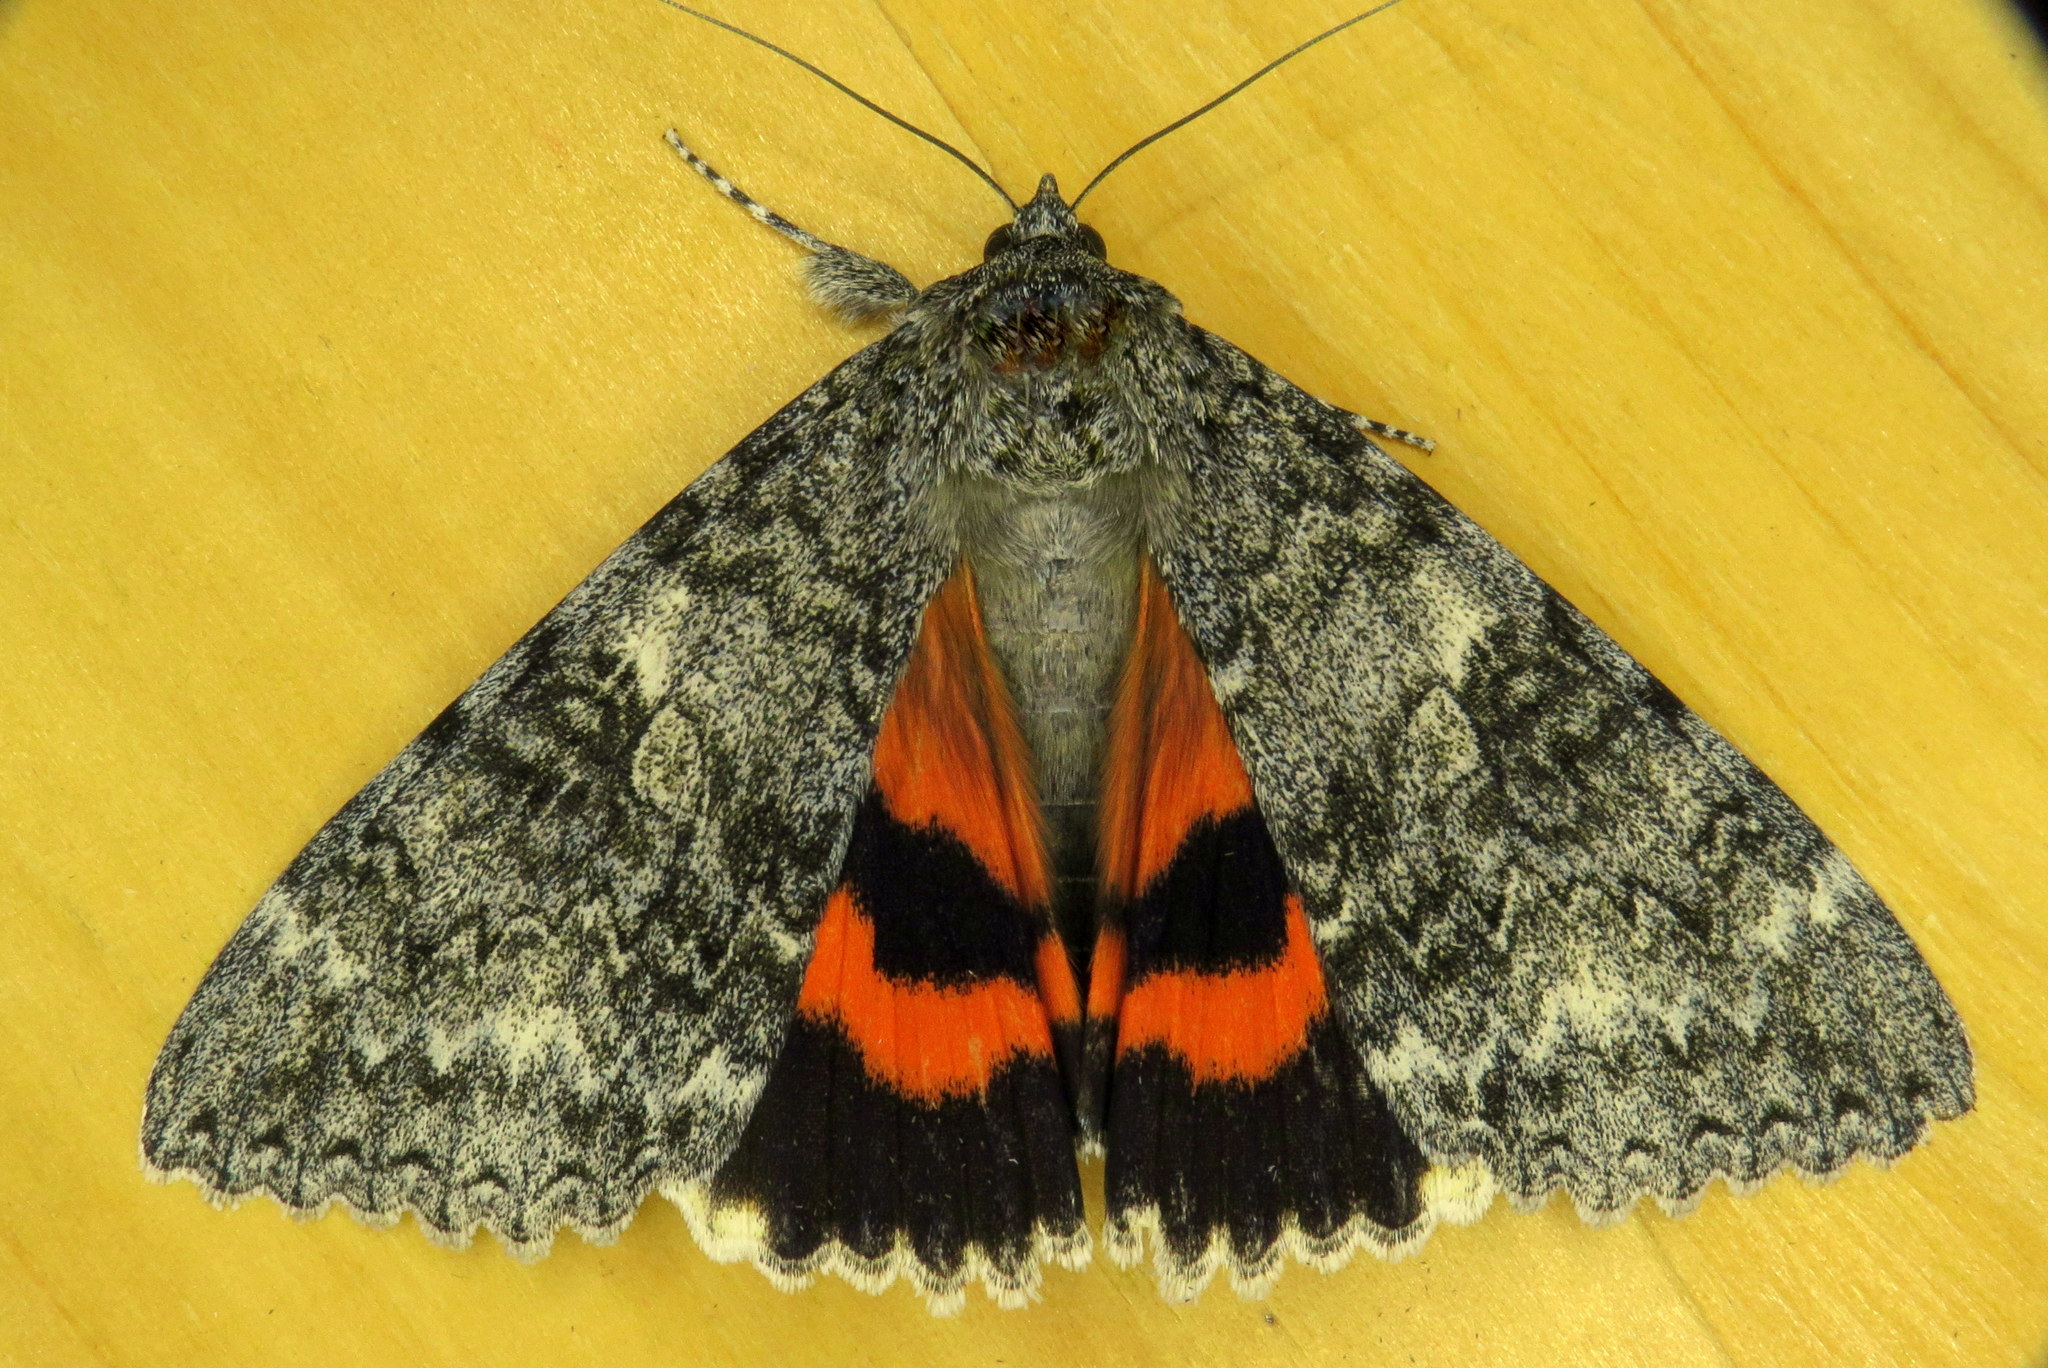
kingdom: Animalia
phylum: Arthropoda
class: Insecta
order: Lepidoptera
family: Erebidae
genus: Catocala
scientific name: Catocala unijuga
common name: Once-married underwing
